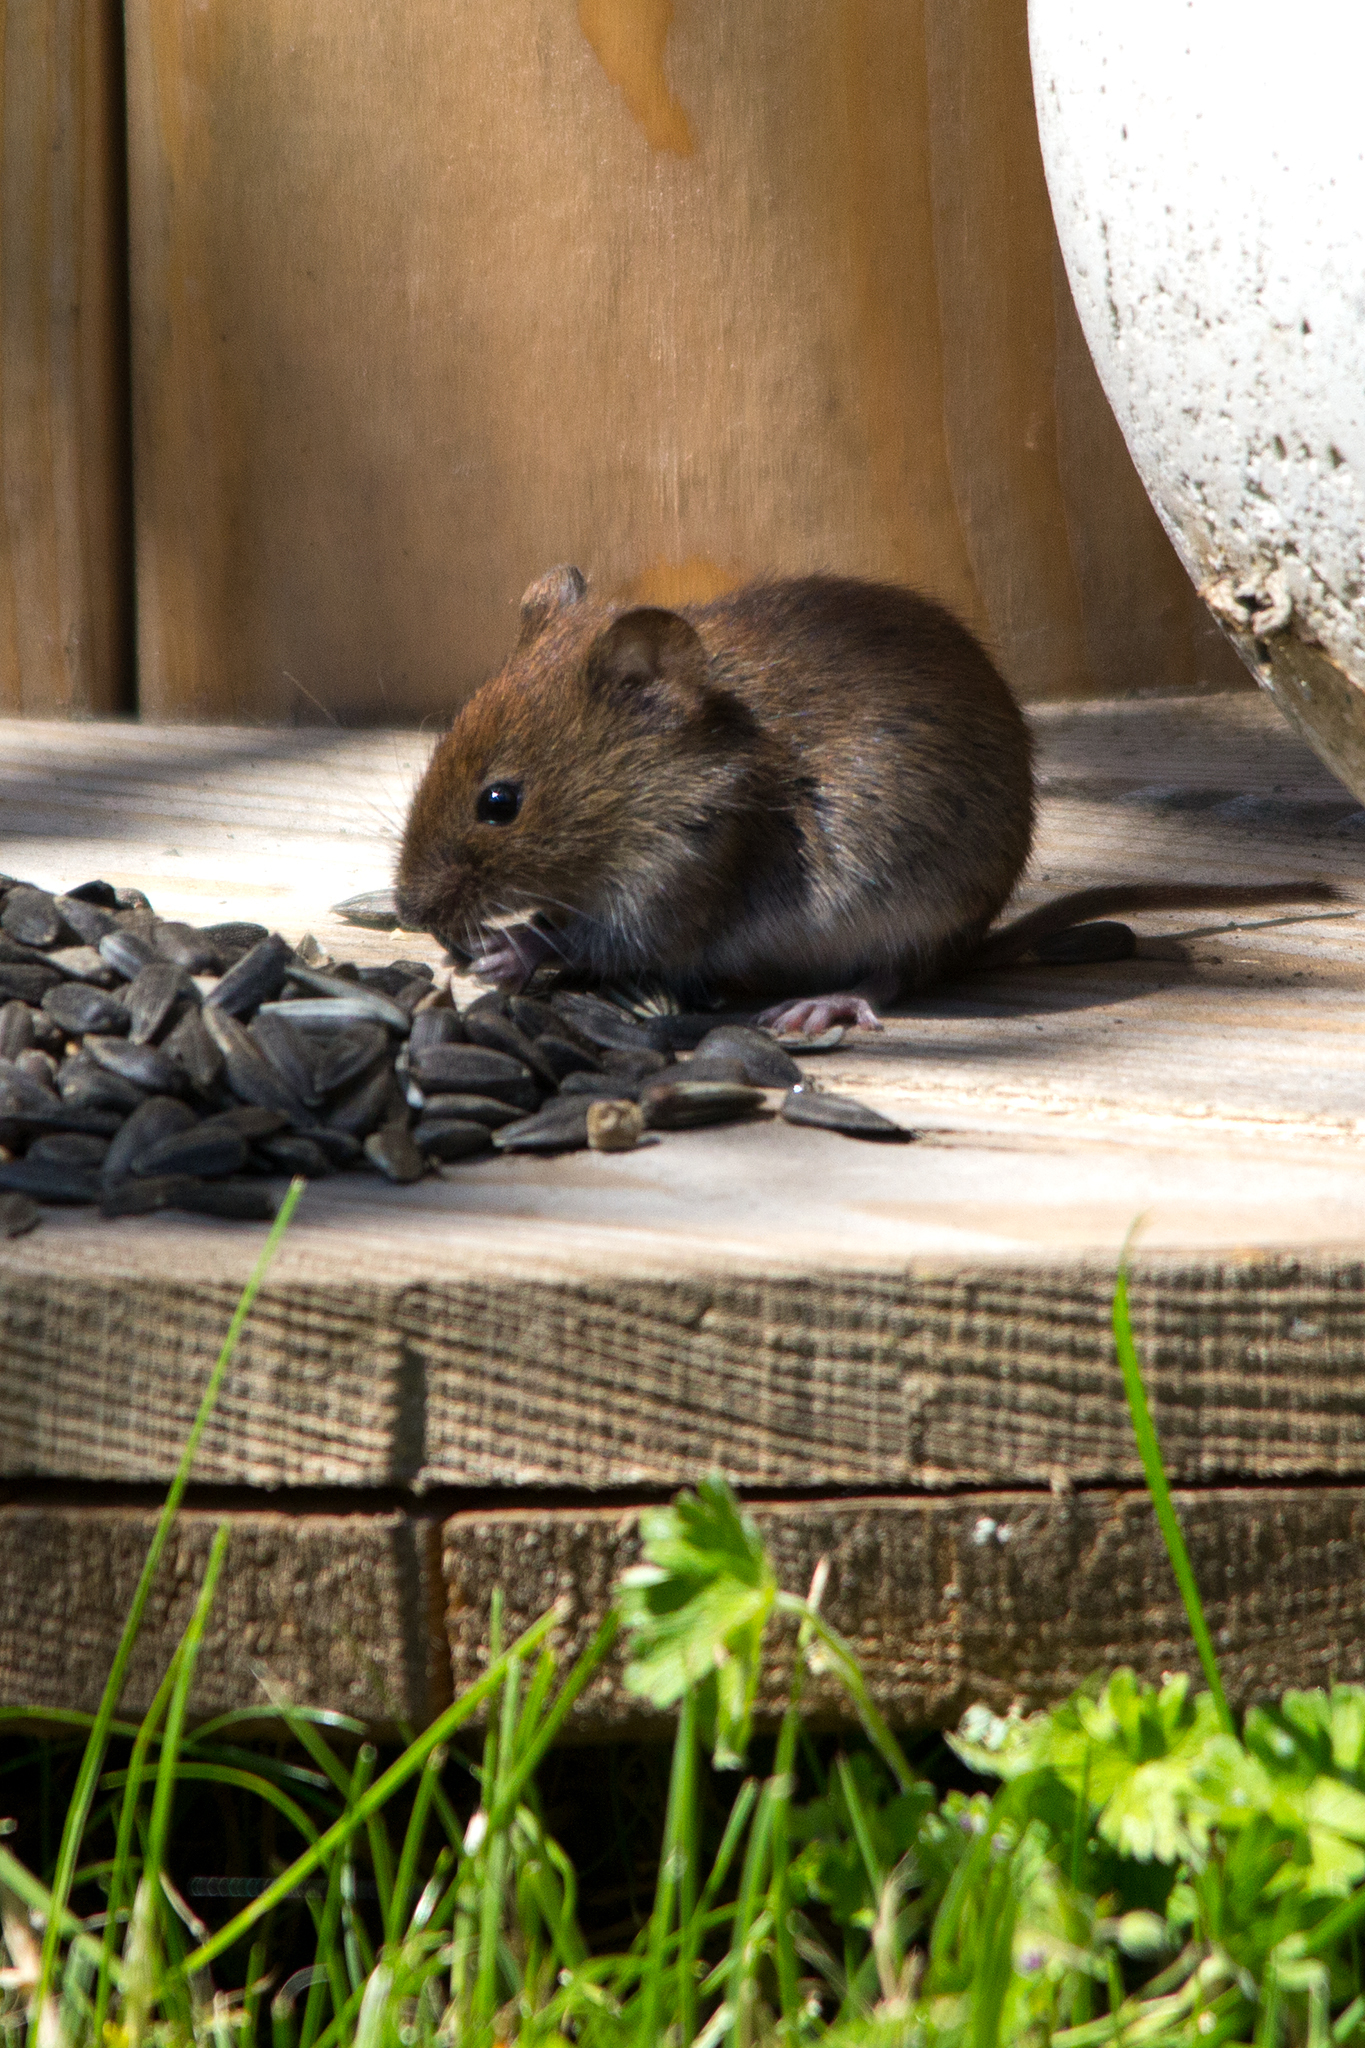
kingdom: Animalia
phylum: Chordata
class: Mammalia
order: Rodentia
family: Cricetidae
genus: Myodes
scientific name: Myodes glareolus
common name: Bank vole
